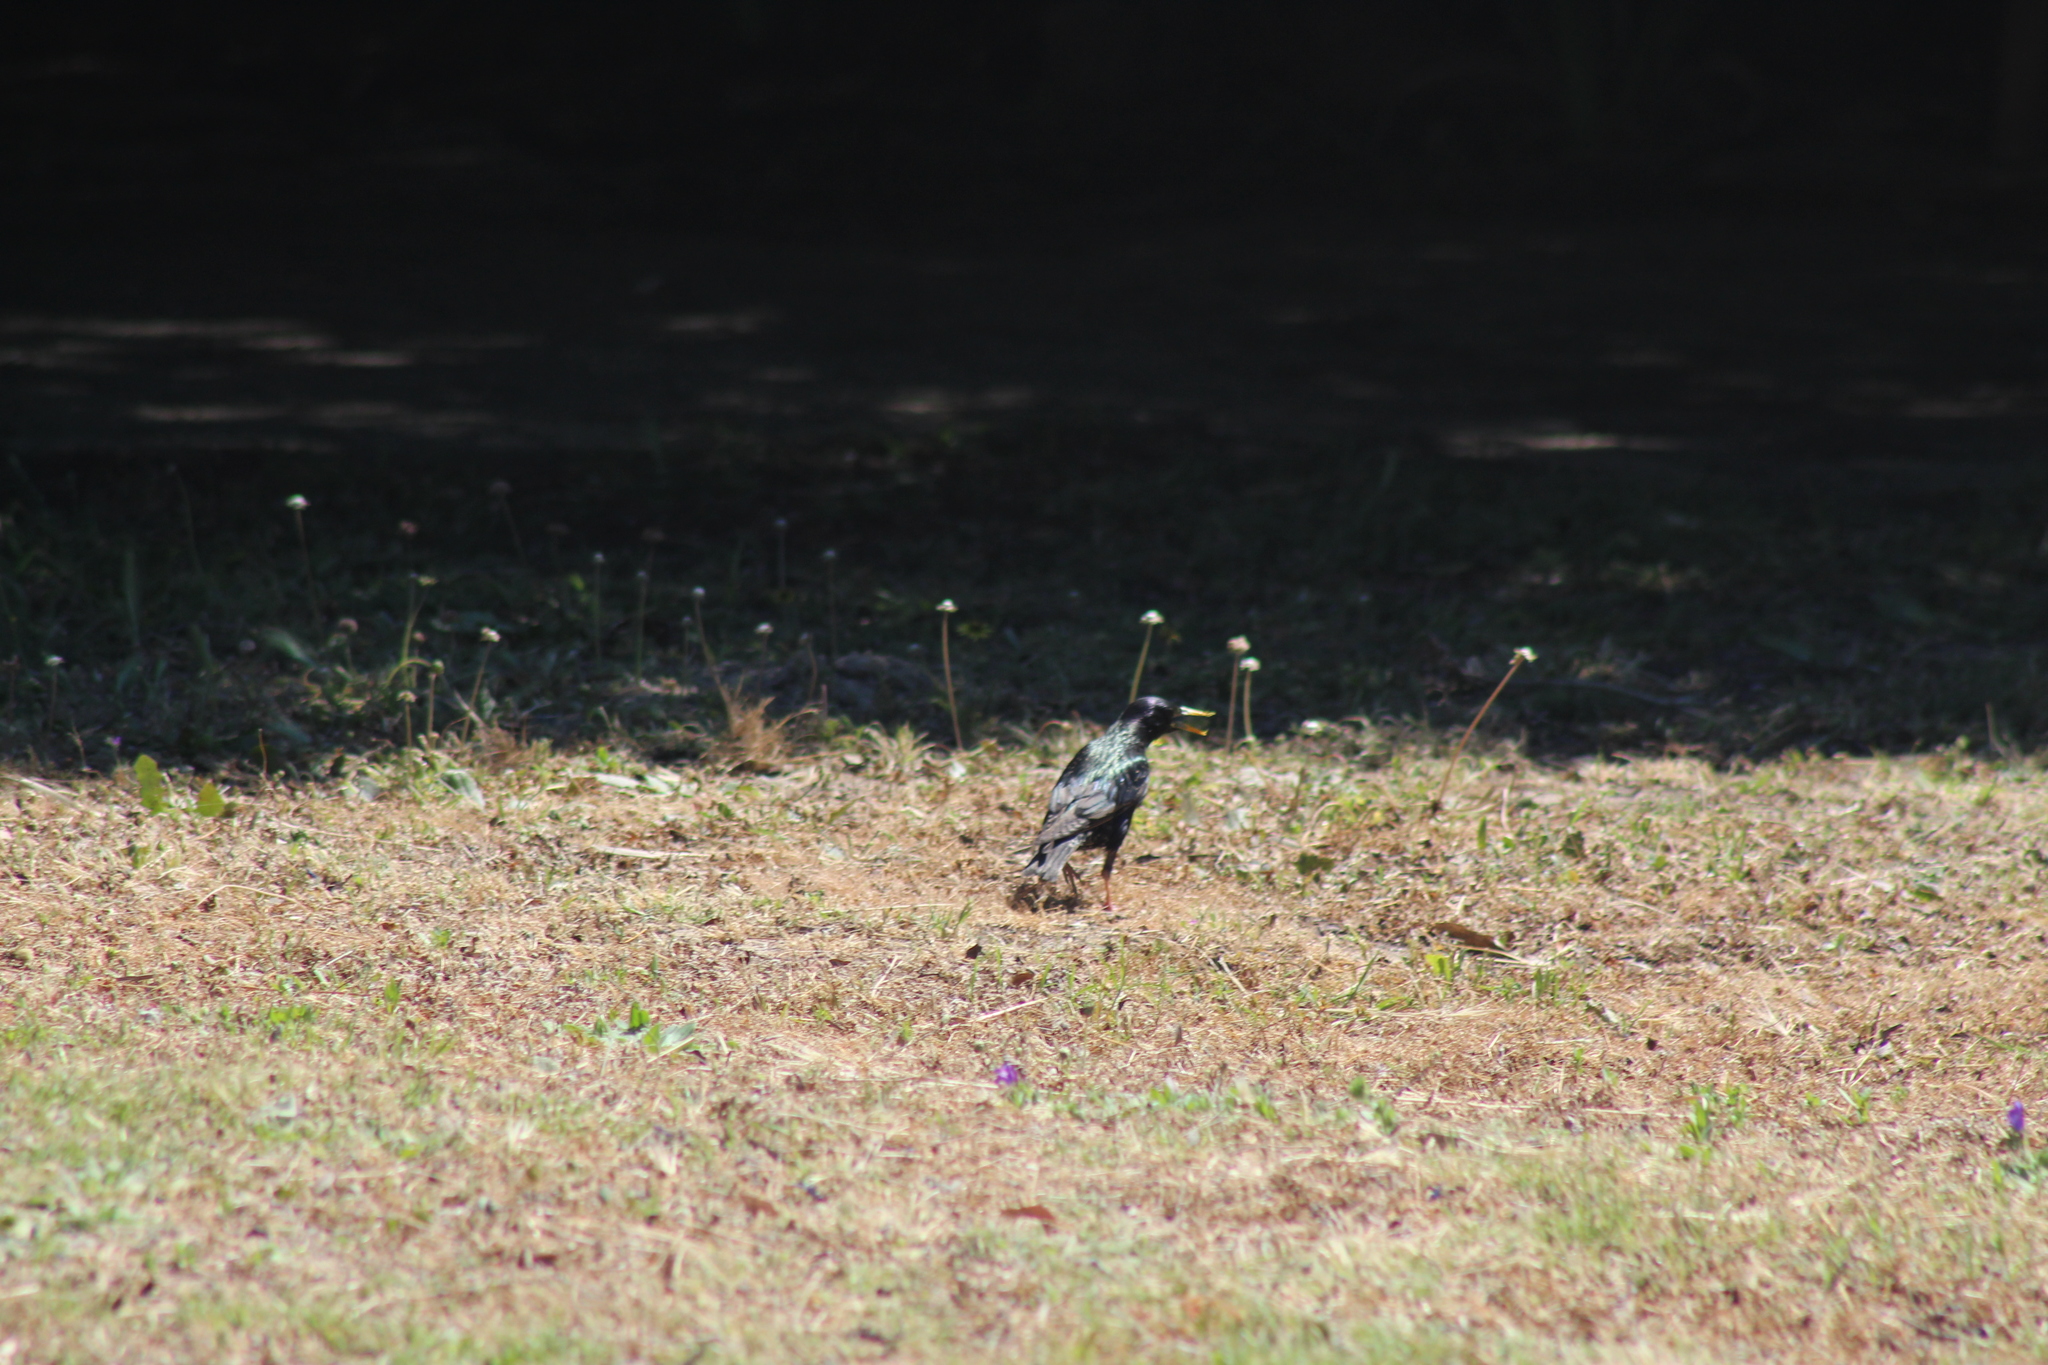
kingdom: Animalia
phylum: Chordata
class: Aves
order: Passeriformes
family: Sturnidae
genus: Sturnus
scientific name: Sturnus vulgaris
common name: Common starling
